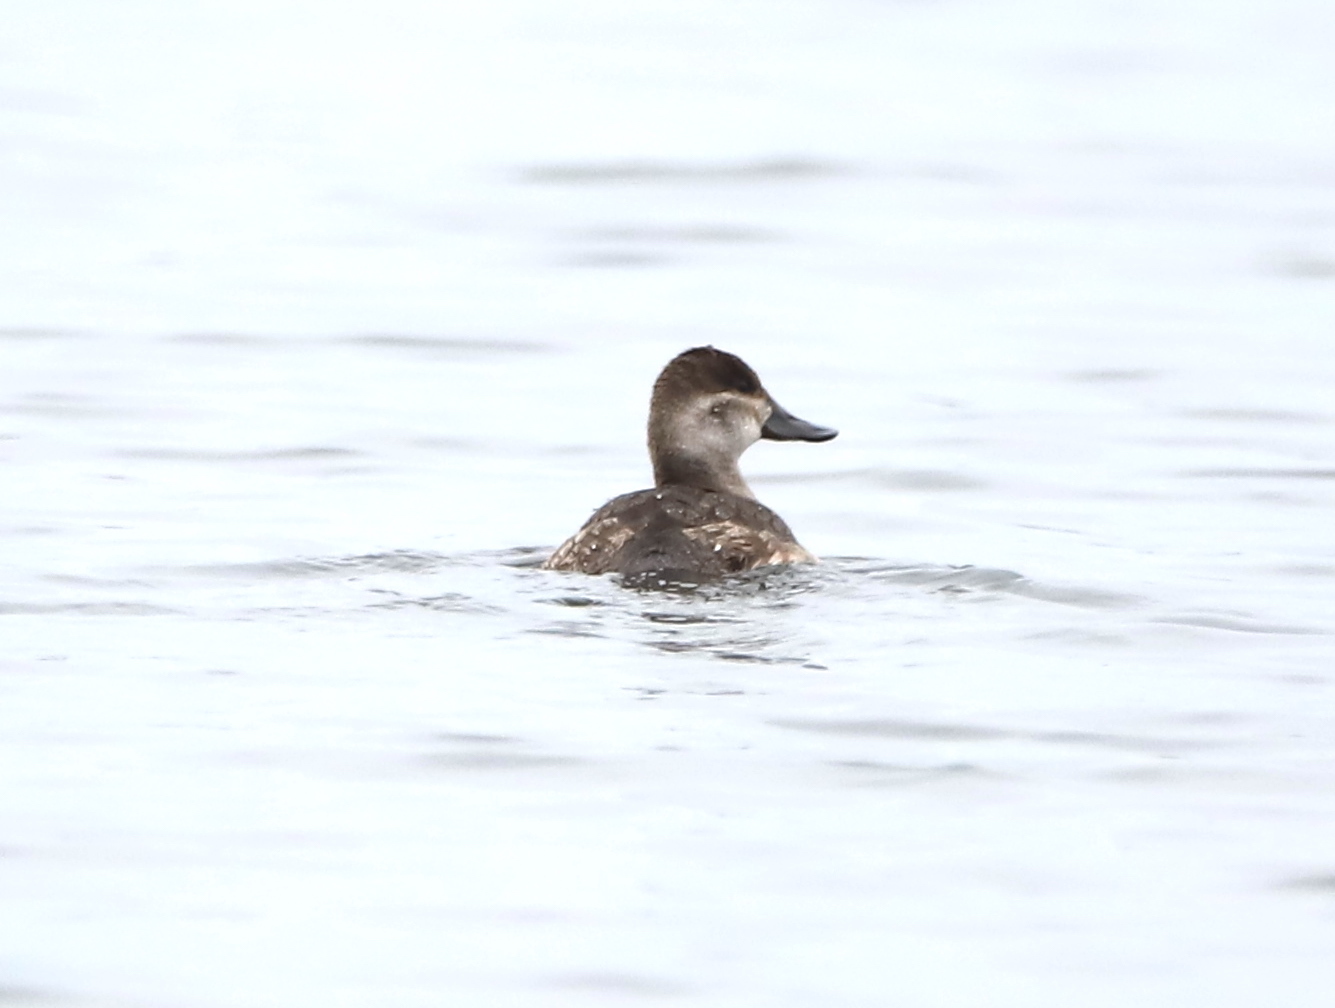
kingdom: Animalia
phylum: Chordata
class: Aves
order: Anseriformes
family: Anatidae
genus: Oxyura
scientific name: Oxyura jamaicensis
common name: Ruddy duck
